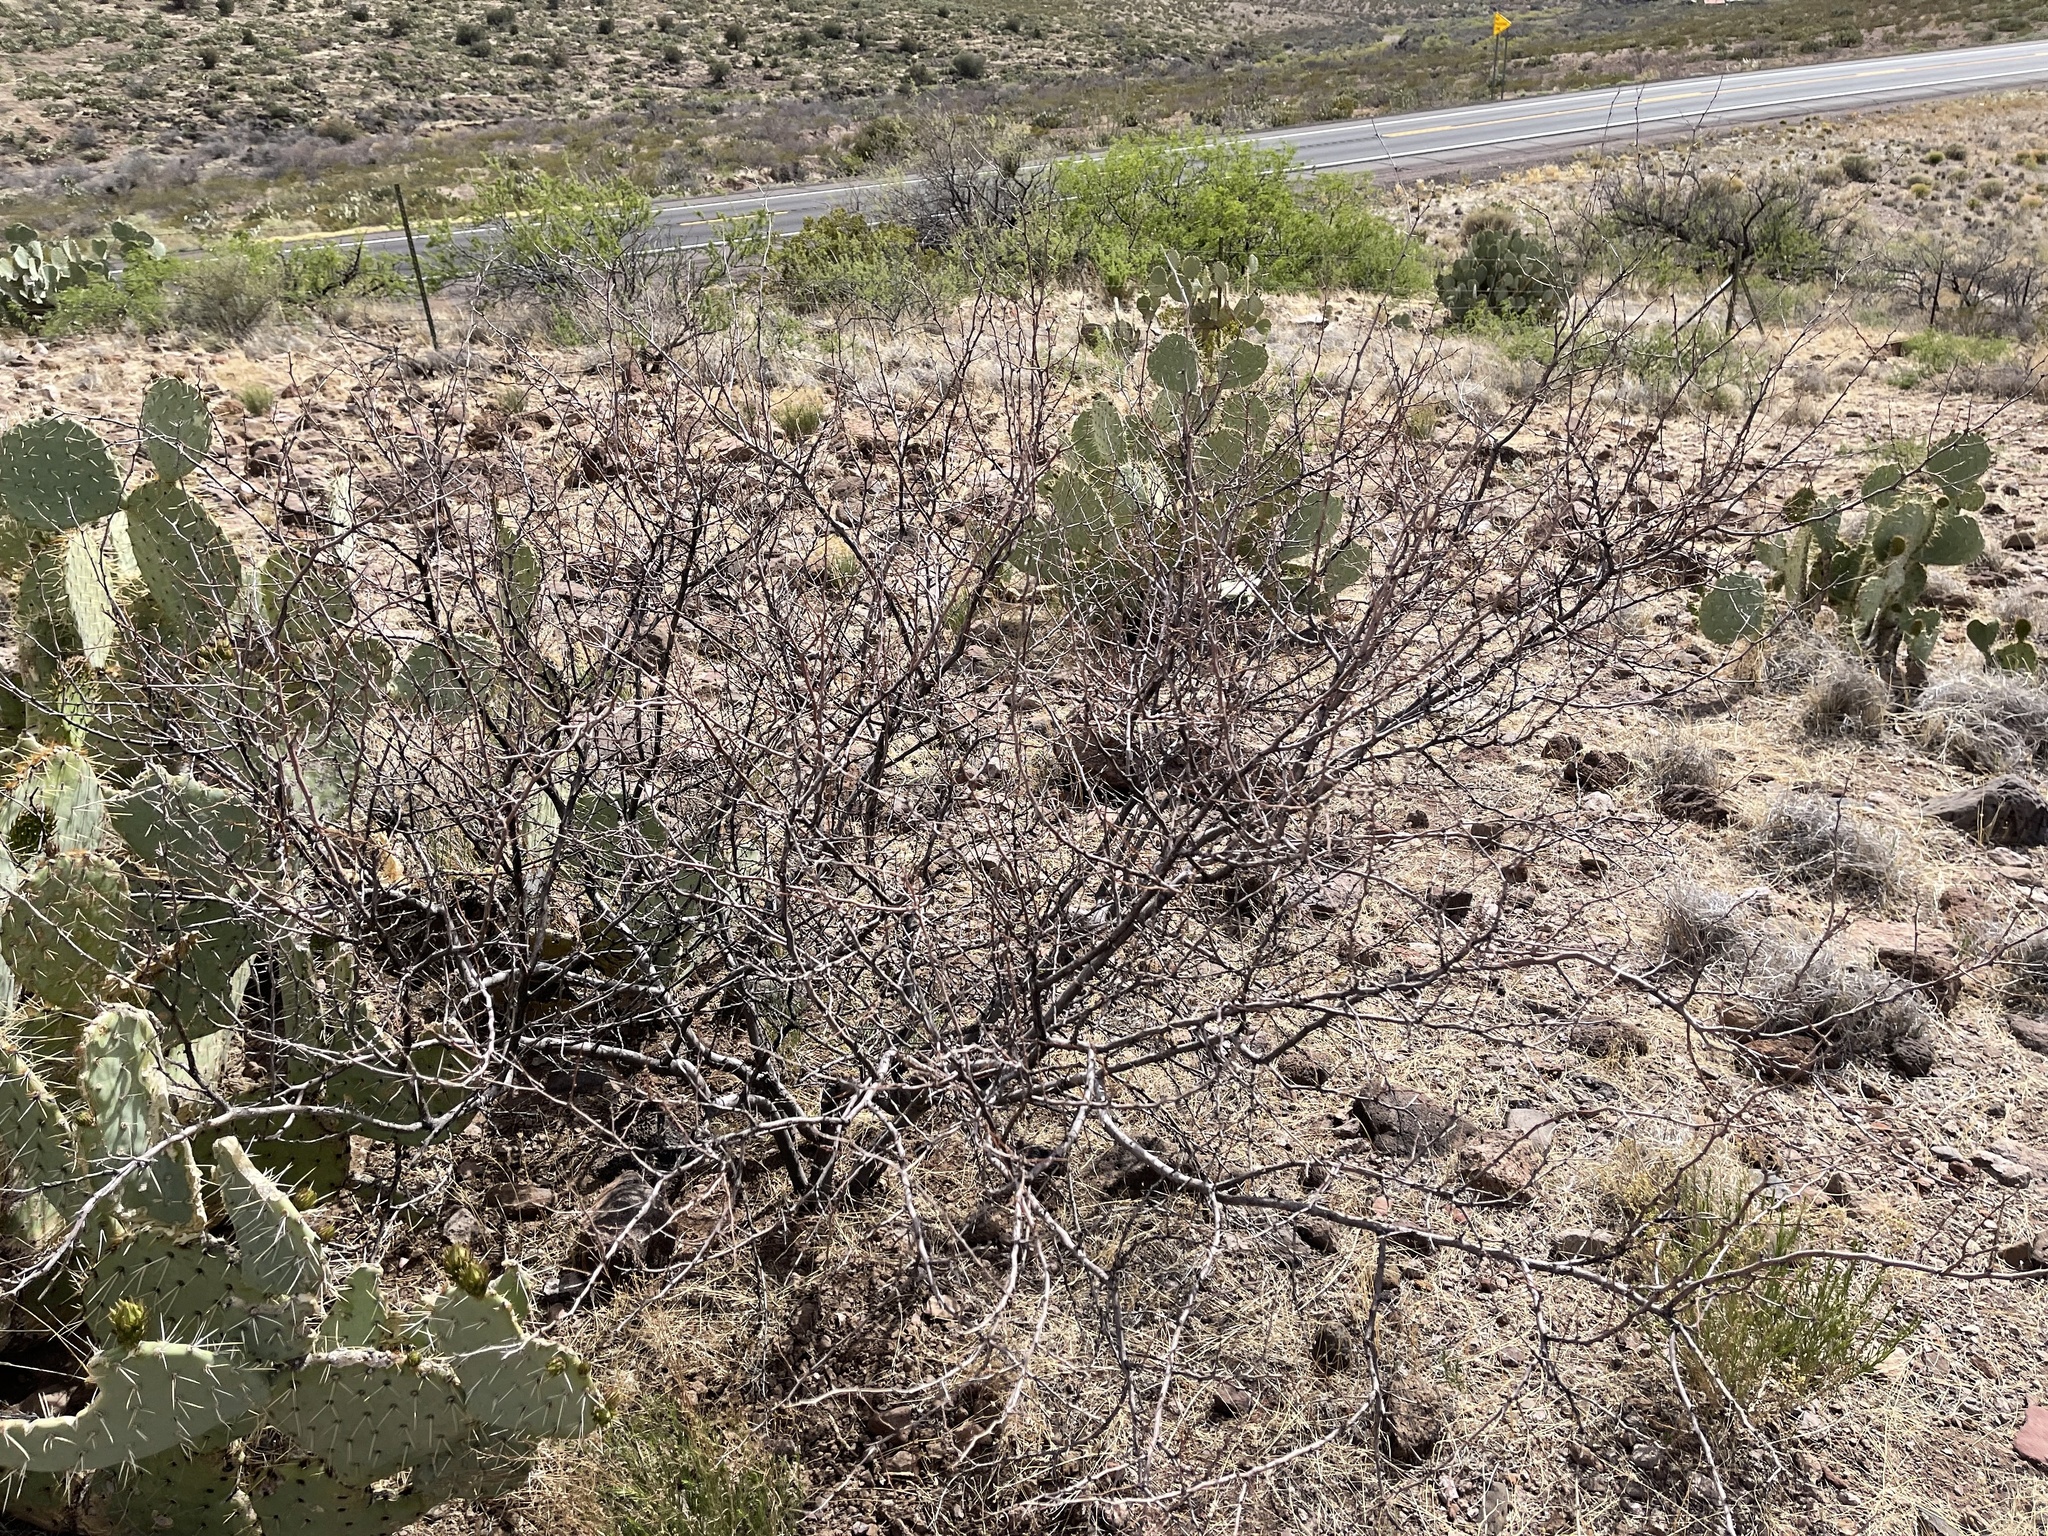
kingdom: Plantae
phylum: Tracheophyta
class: Magnoliopsida
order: Fabales
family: Fabaceae
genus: Vachellia
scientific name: Vachellia constricta
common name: Mescat acacia
